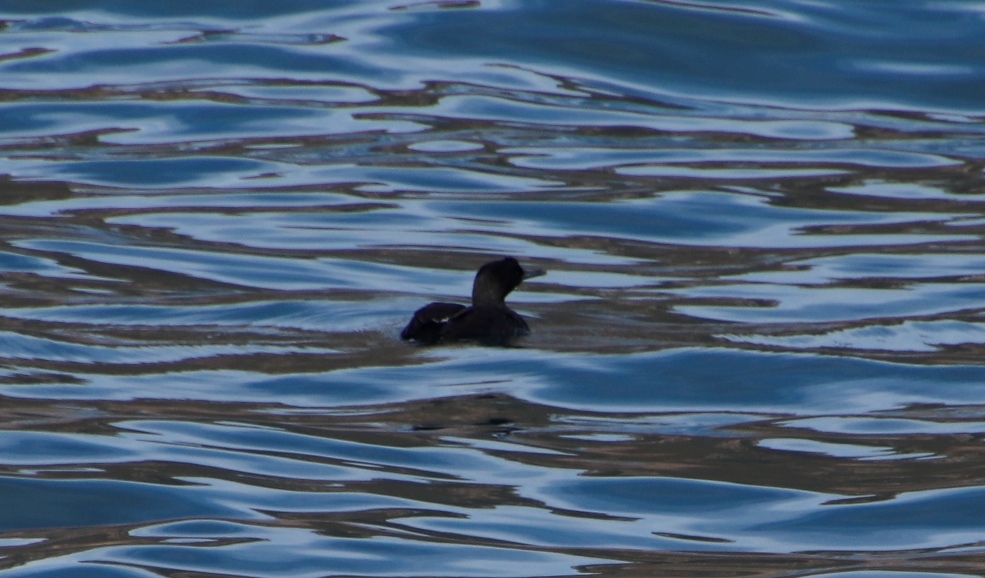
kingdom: Animalia
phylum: Chordata
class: Aves
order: Suliformes
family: Phalacrocoracidae
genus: Phalacrocorax
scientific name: Phalacrocorax neglectus
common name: Bank cormorant
